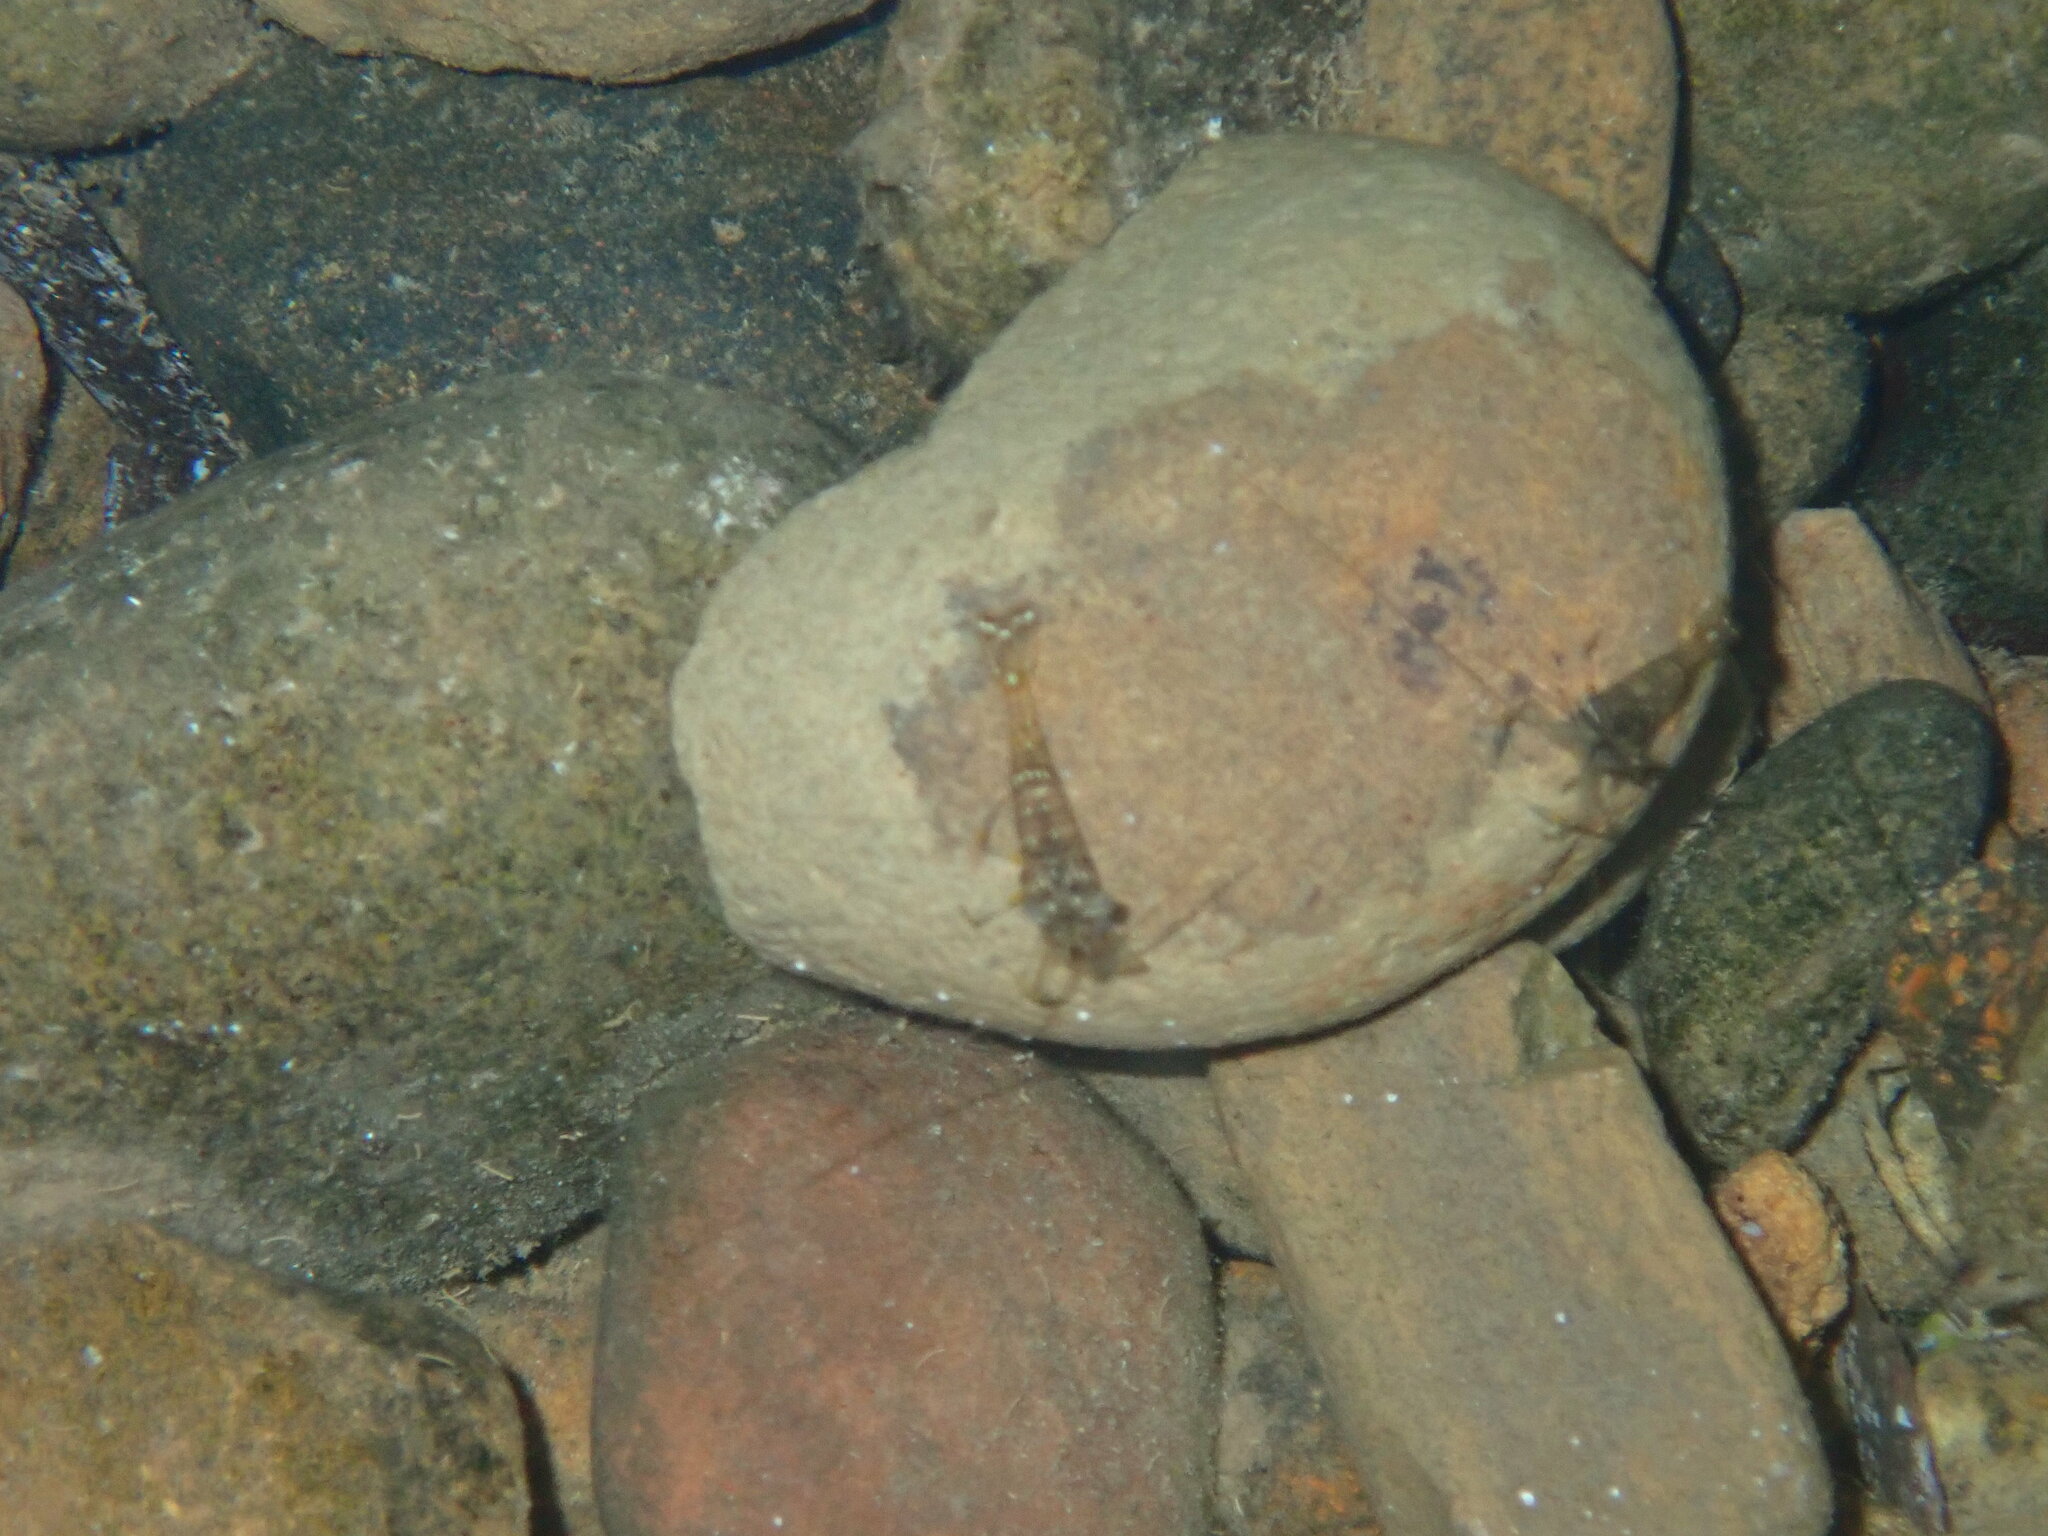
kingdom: Animalia
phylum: Arthropoda
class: Malacostraca
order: Decapoda
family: Palaemonidae
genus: Palaemon
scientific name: Palaemon elegans
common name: Grass prawm
